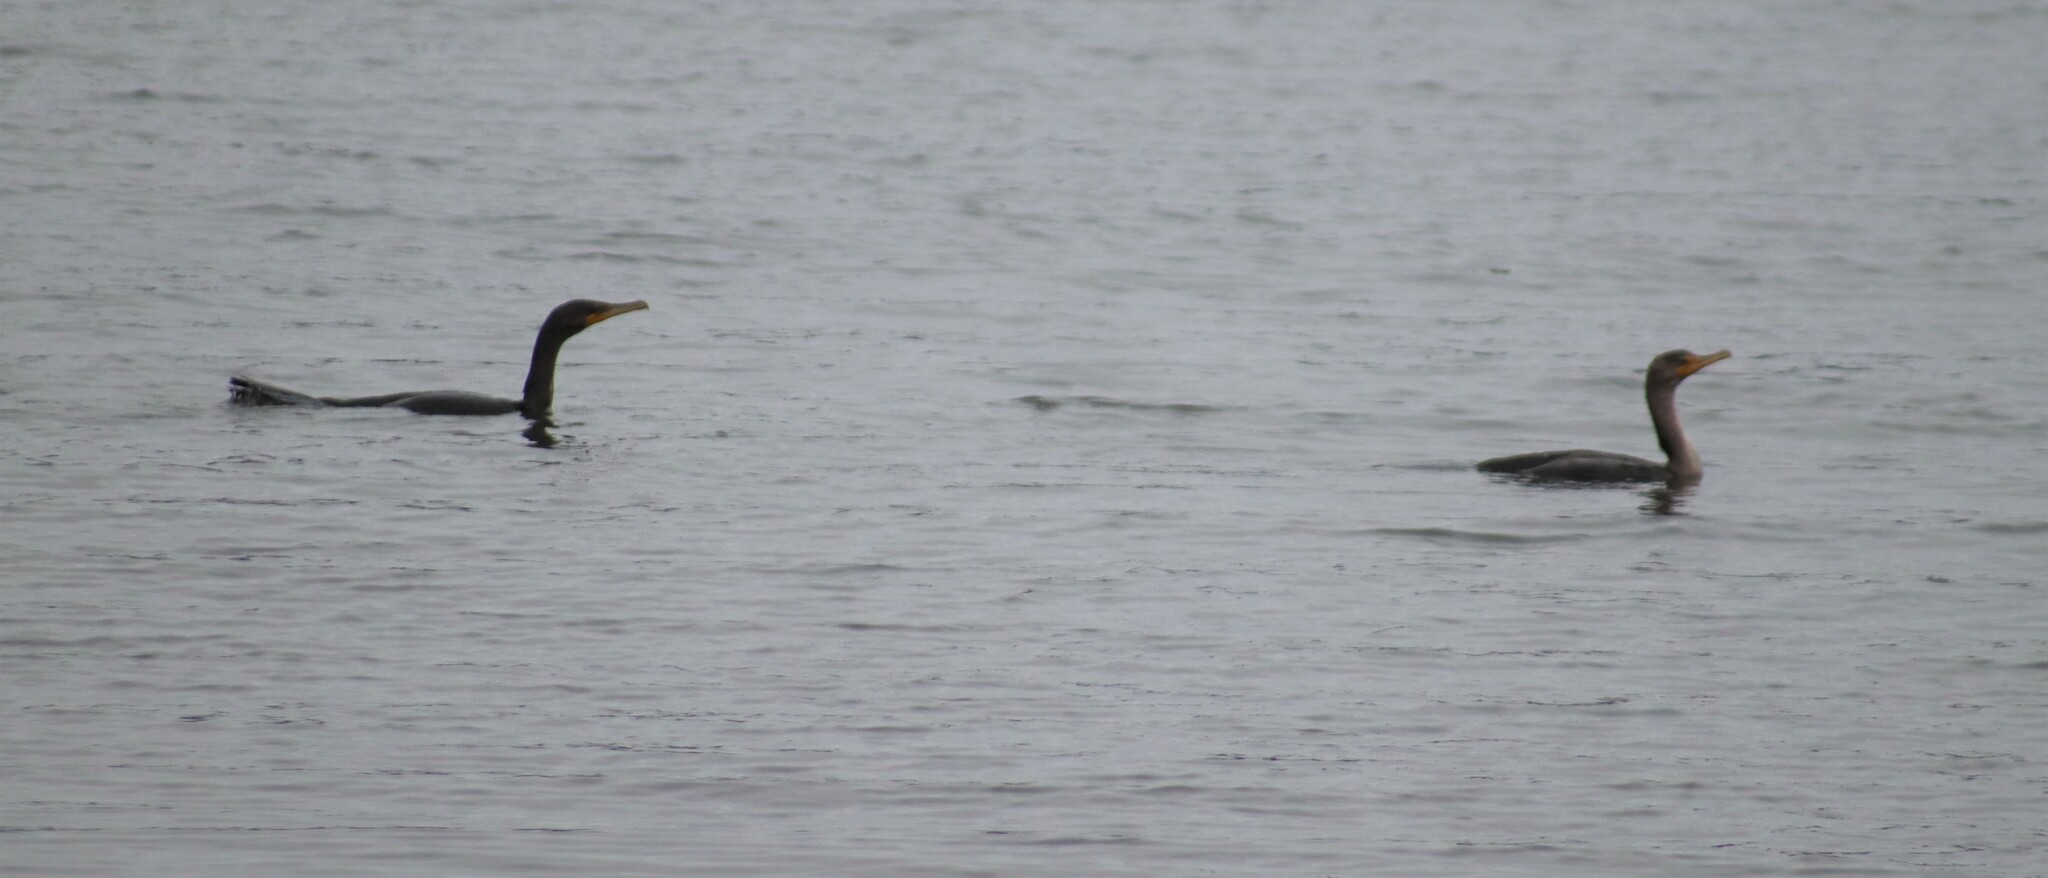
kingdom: Animalia
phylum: Chordata
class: Aves
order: Suliformes
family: Phalacrocoracidae
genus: Phalacrocorax
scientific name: Phalacrocorax auritus
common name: Double-crested cormorant
